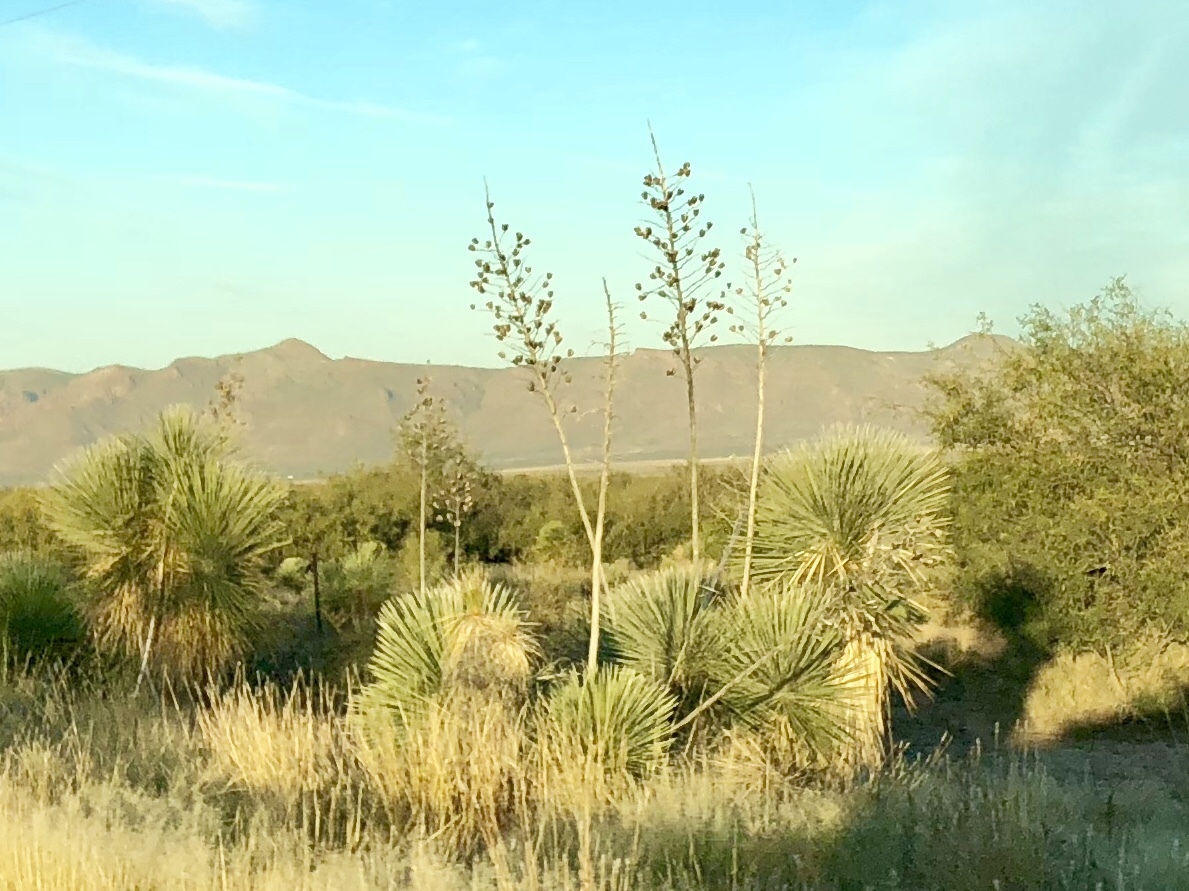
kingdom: Plantae
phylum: Tracheophyta
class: Liliopsida
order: Asparagales
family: Asparagaceae
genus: Yucca
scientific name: Yucca elata
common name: Palmella
